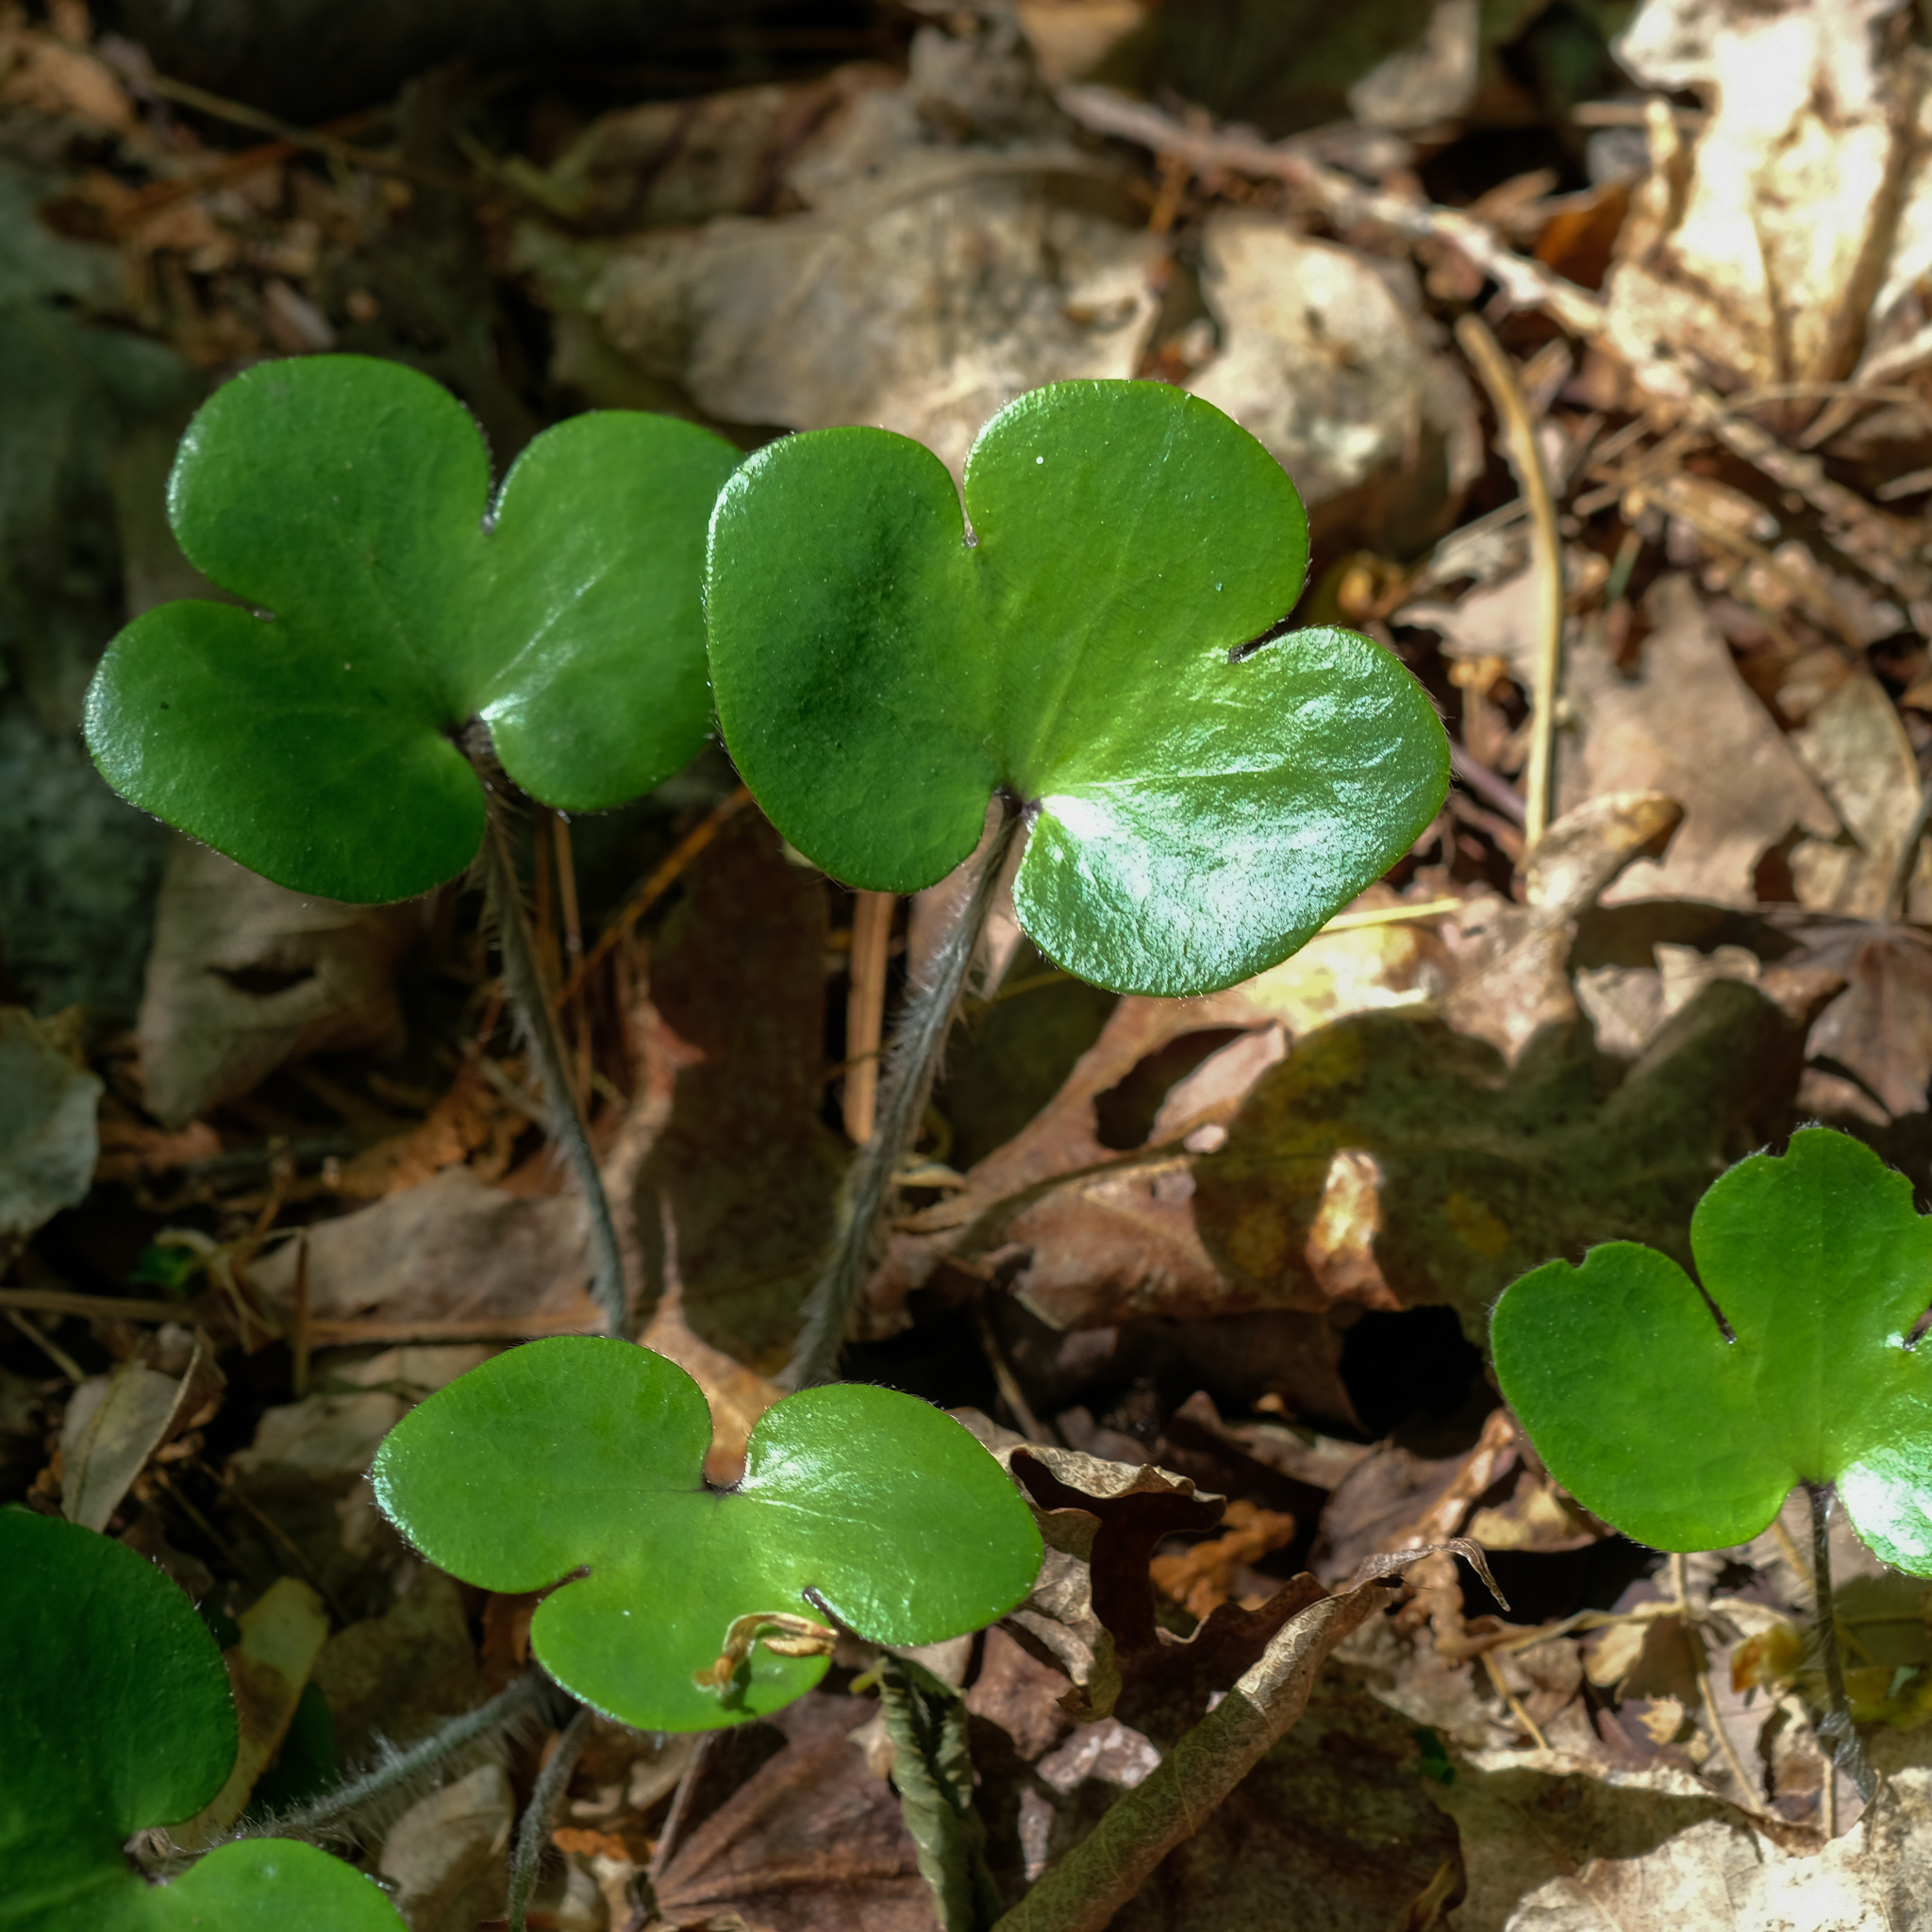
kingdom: Plantae
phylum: Tracheophyta
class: Magnoliopsida
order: Ranunculales
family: Ranunculaceae
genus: Hepatica
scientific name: Hepatica americana
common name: American hepatica
